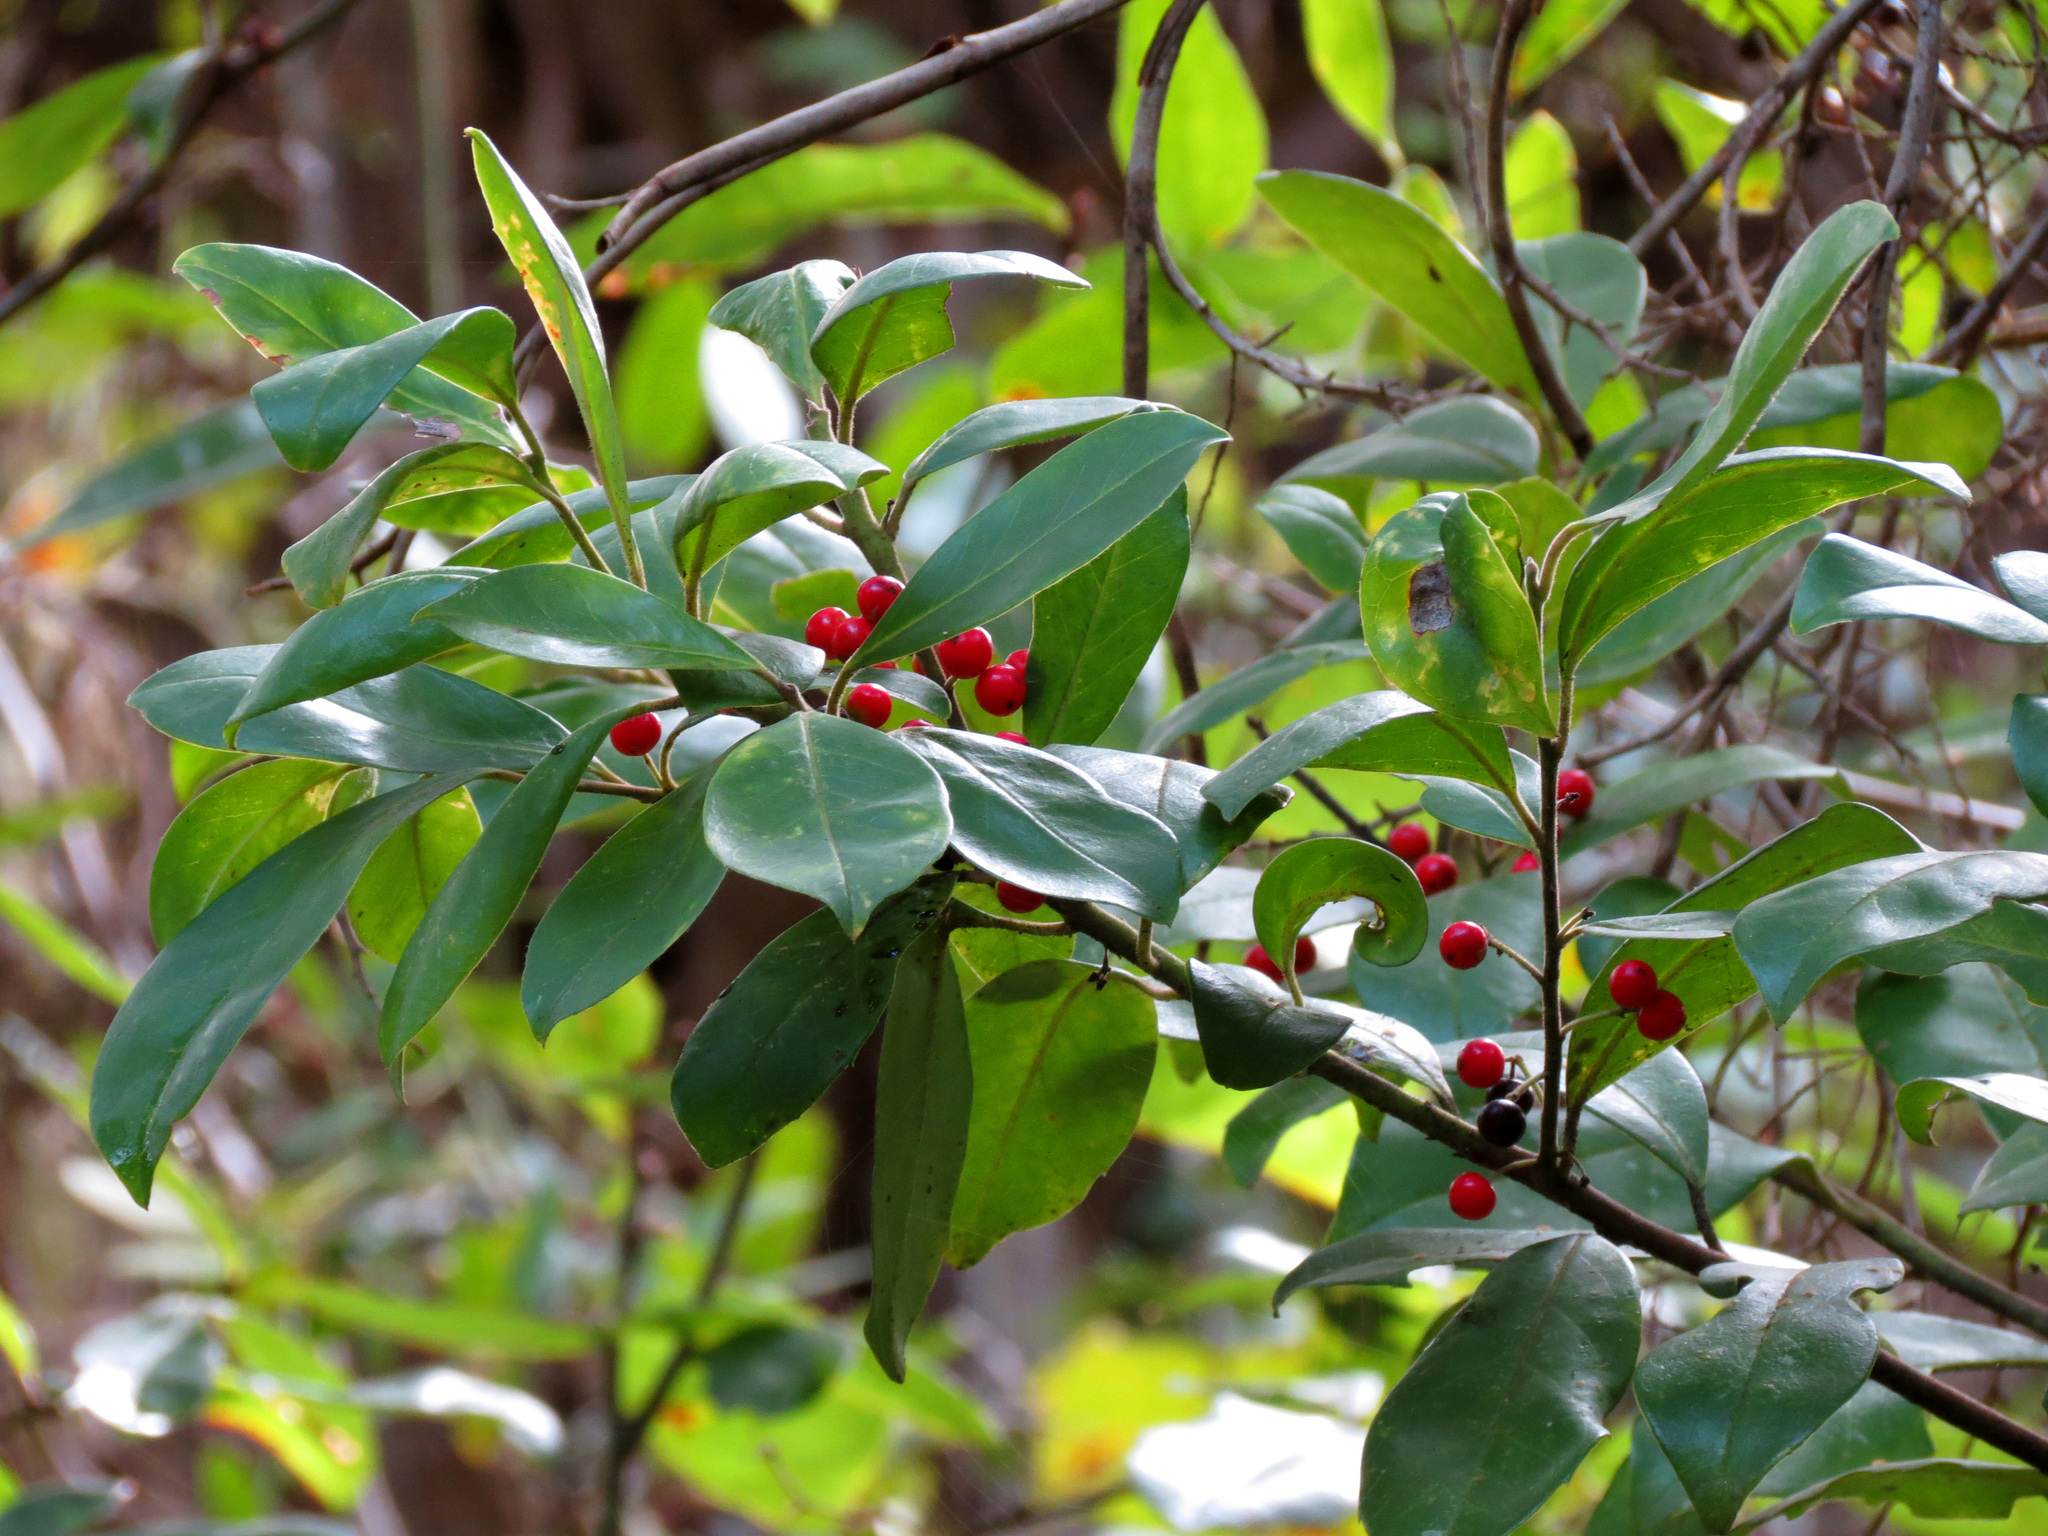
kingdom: Plantae
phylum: Tracheophyta
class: Magnoliopsida
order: Aquifoliales
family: Aquifoliaceae
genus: Ilex
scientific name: Ilex cassine
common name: Dahoon
